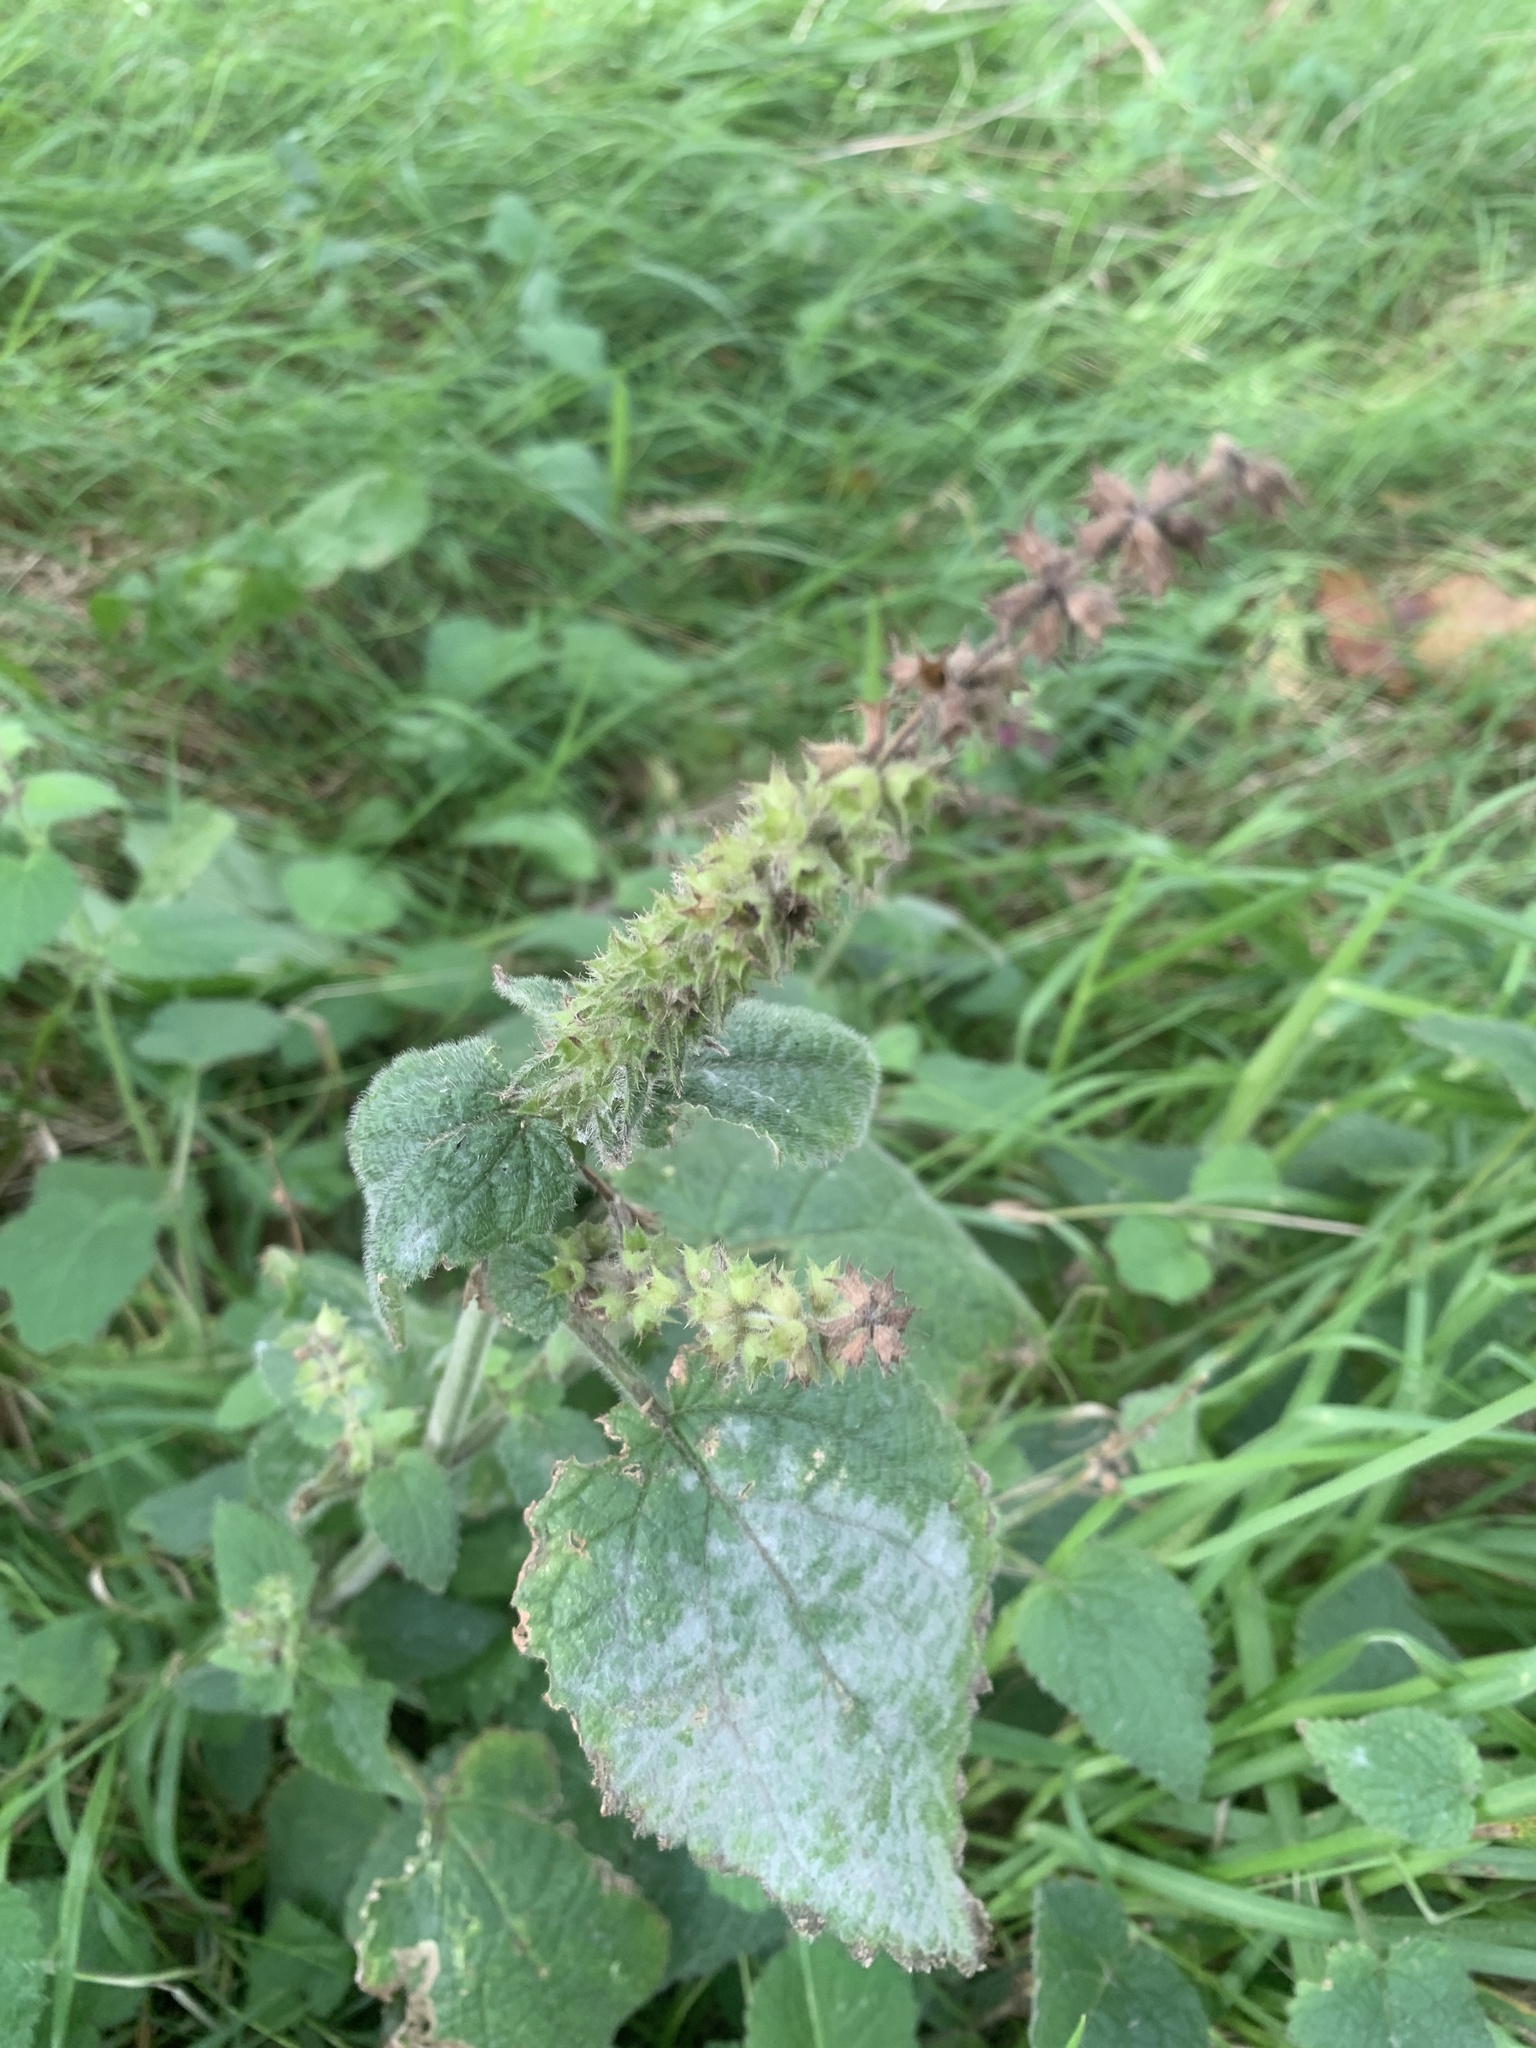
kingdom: Plantae
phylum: Tracheophyta
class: Magnoliopsida
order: Lamiales
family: Lamiaceae
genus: Stachys
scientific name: Stachys sylvatica
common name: Hedge woundwort
